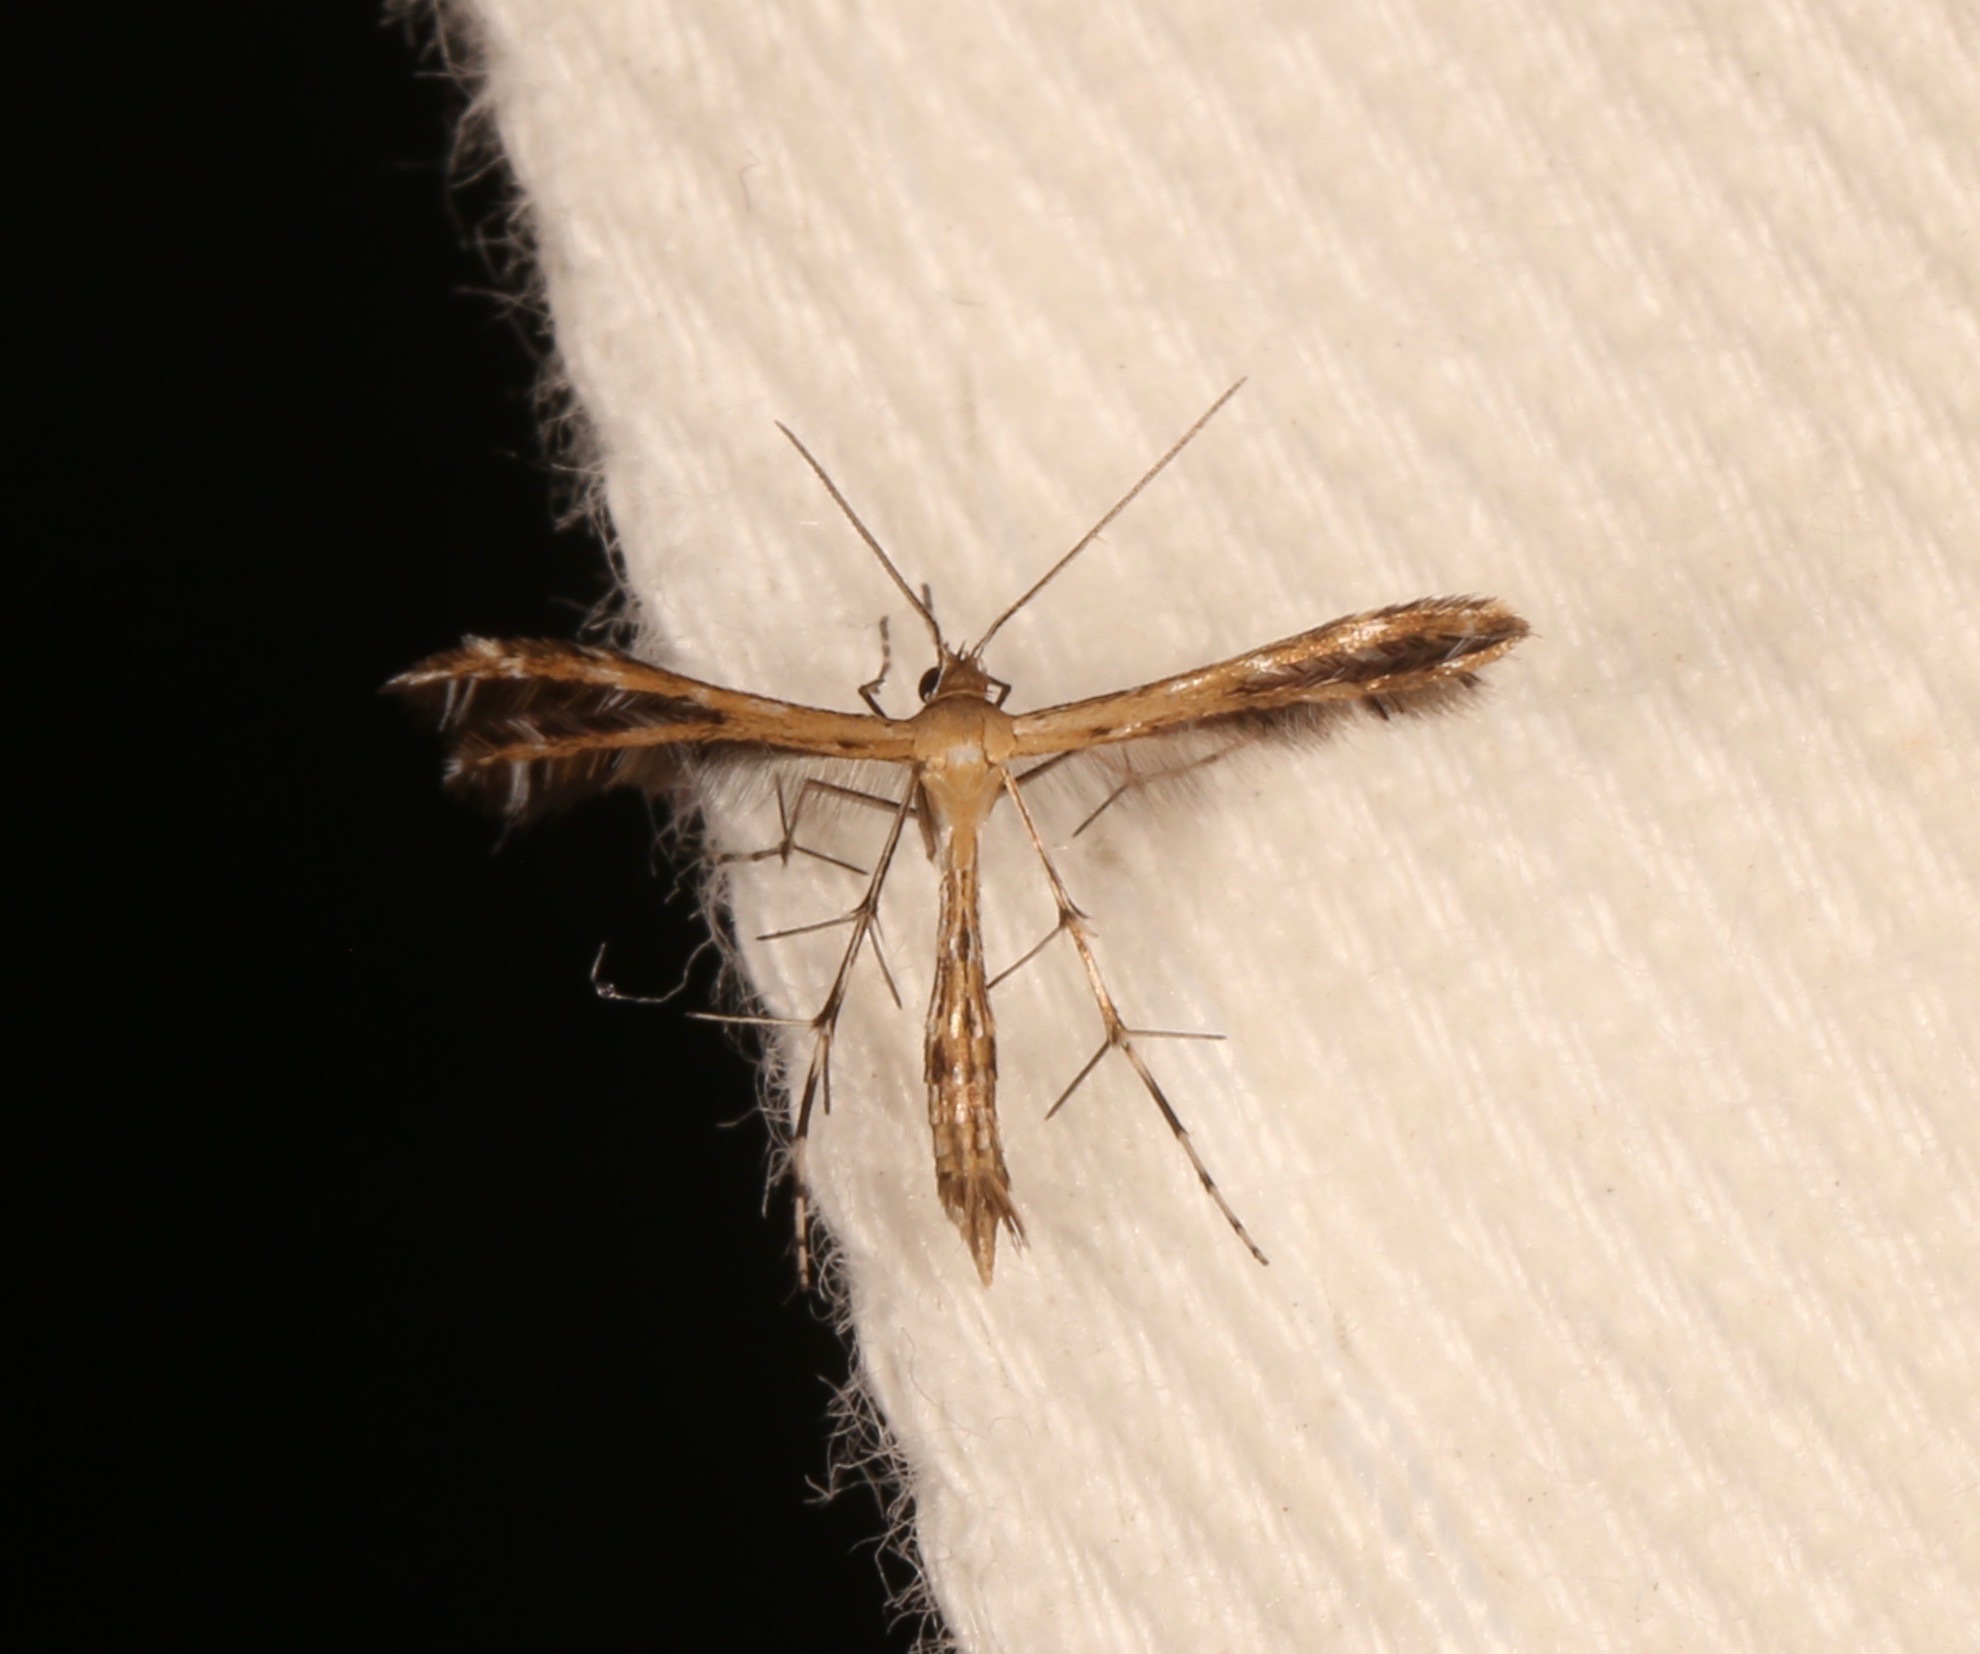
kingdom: Animalia
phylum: Arthropoda
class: Insecta
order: Lepidoptera
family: Pterophoridae
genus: Buckleria
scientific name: Buckleria parvulus
